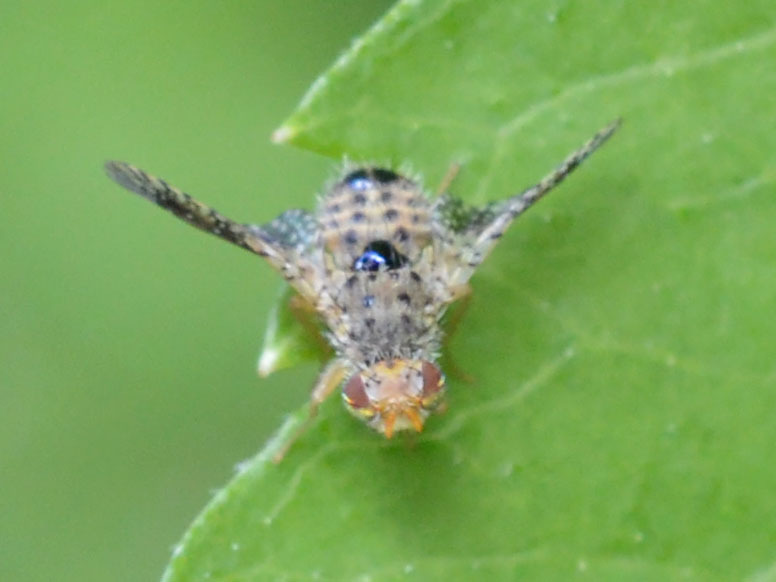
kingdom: Animalia
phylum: Arthropoda
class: Insecta
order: Diptera
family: Tephritidae
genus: Noeeta
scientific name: Noeeta pupillata
